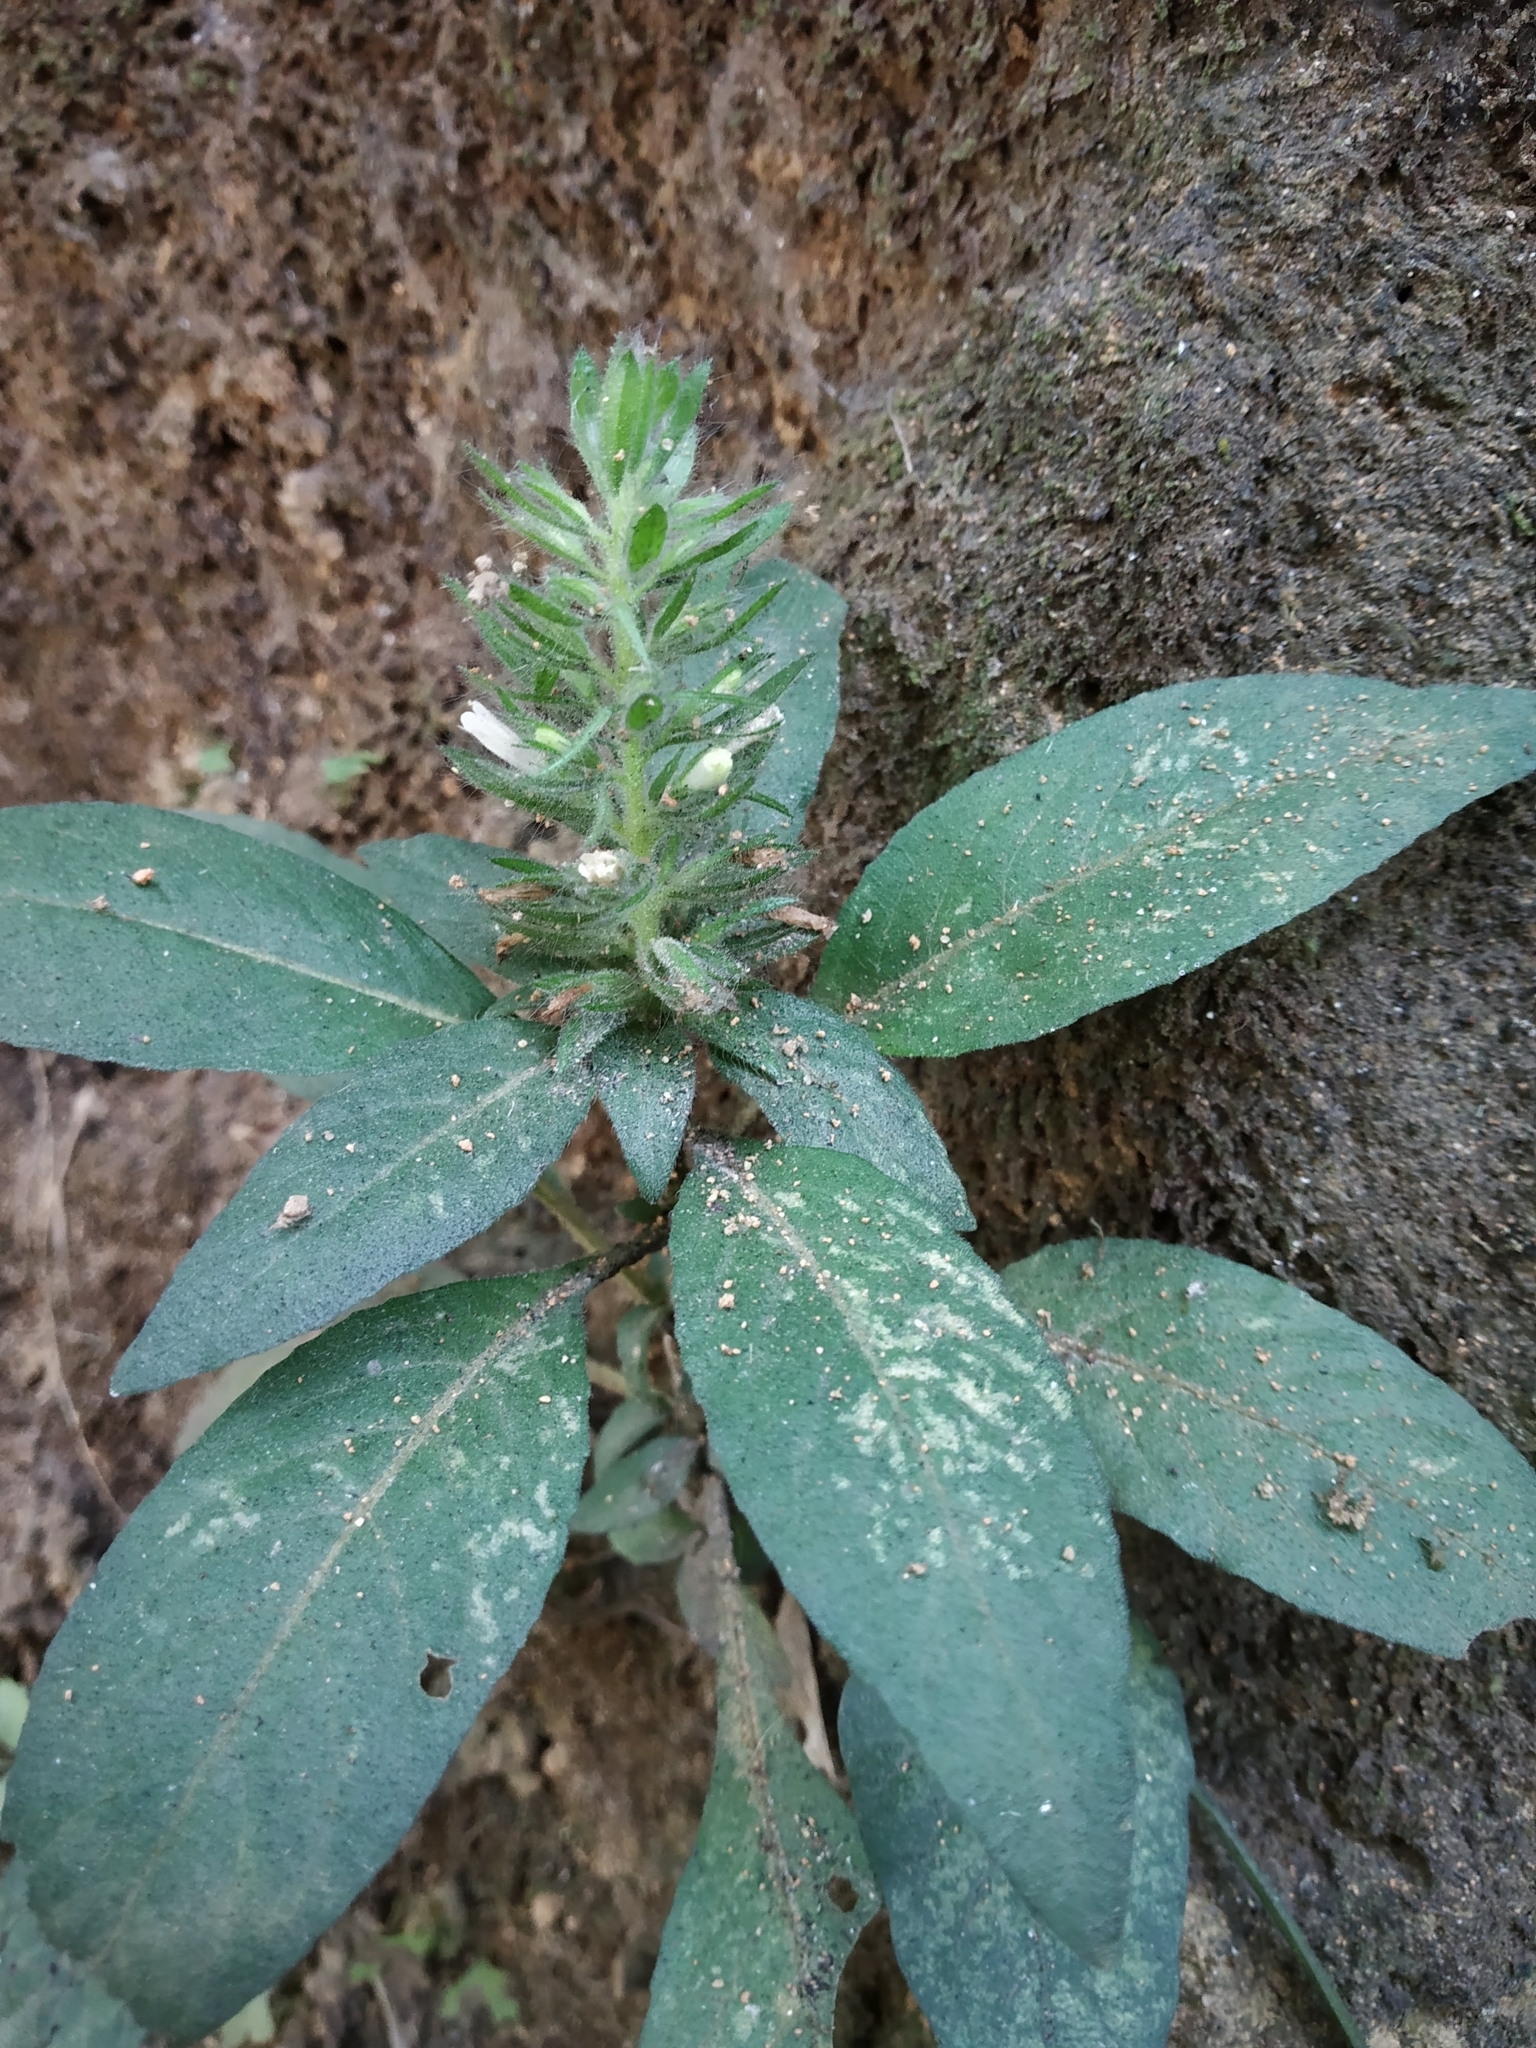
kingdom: Plantae
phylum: Tracheophyta
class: Magnoliopsida
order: Lamiales
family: Acanthaceae
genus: Phaulopsis
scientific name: Phaulopsis dorsiflora
